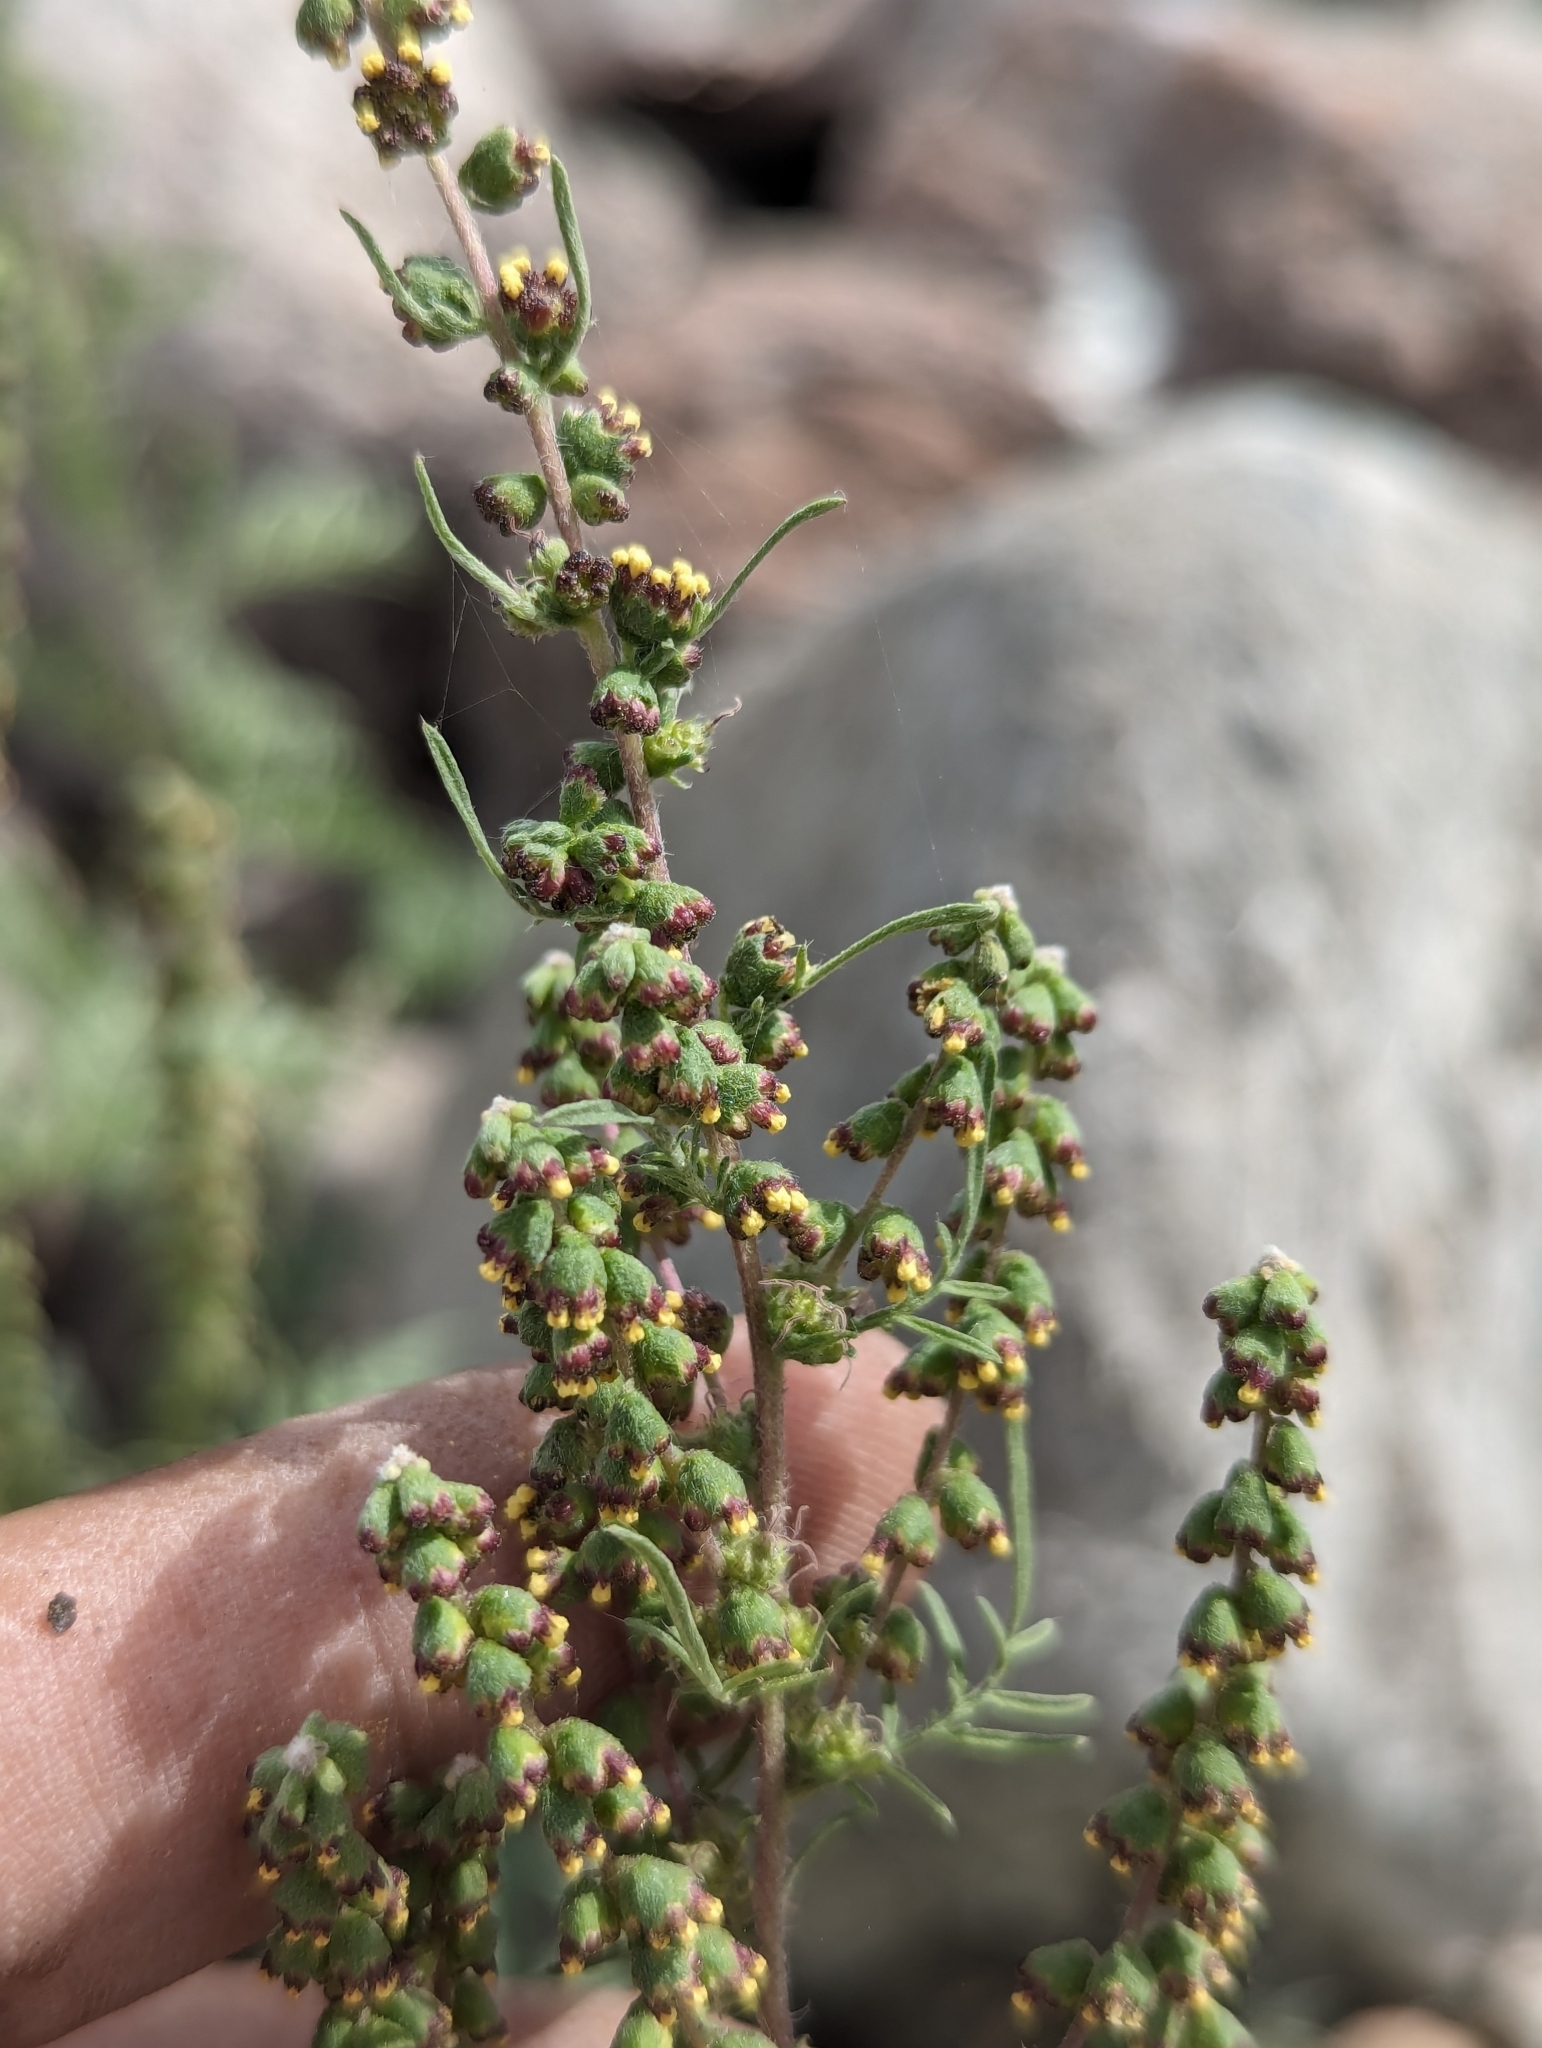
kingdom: Plantae
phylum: Tracheophyta
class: Magnoliopsida
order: Asterales
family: Asteraceae
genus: Ambrosia
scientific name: Ambrosia confertiflora
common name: Bur ragweed
